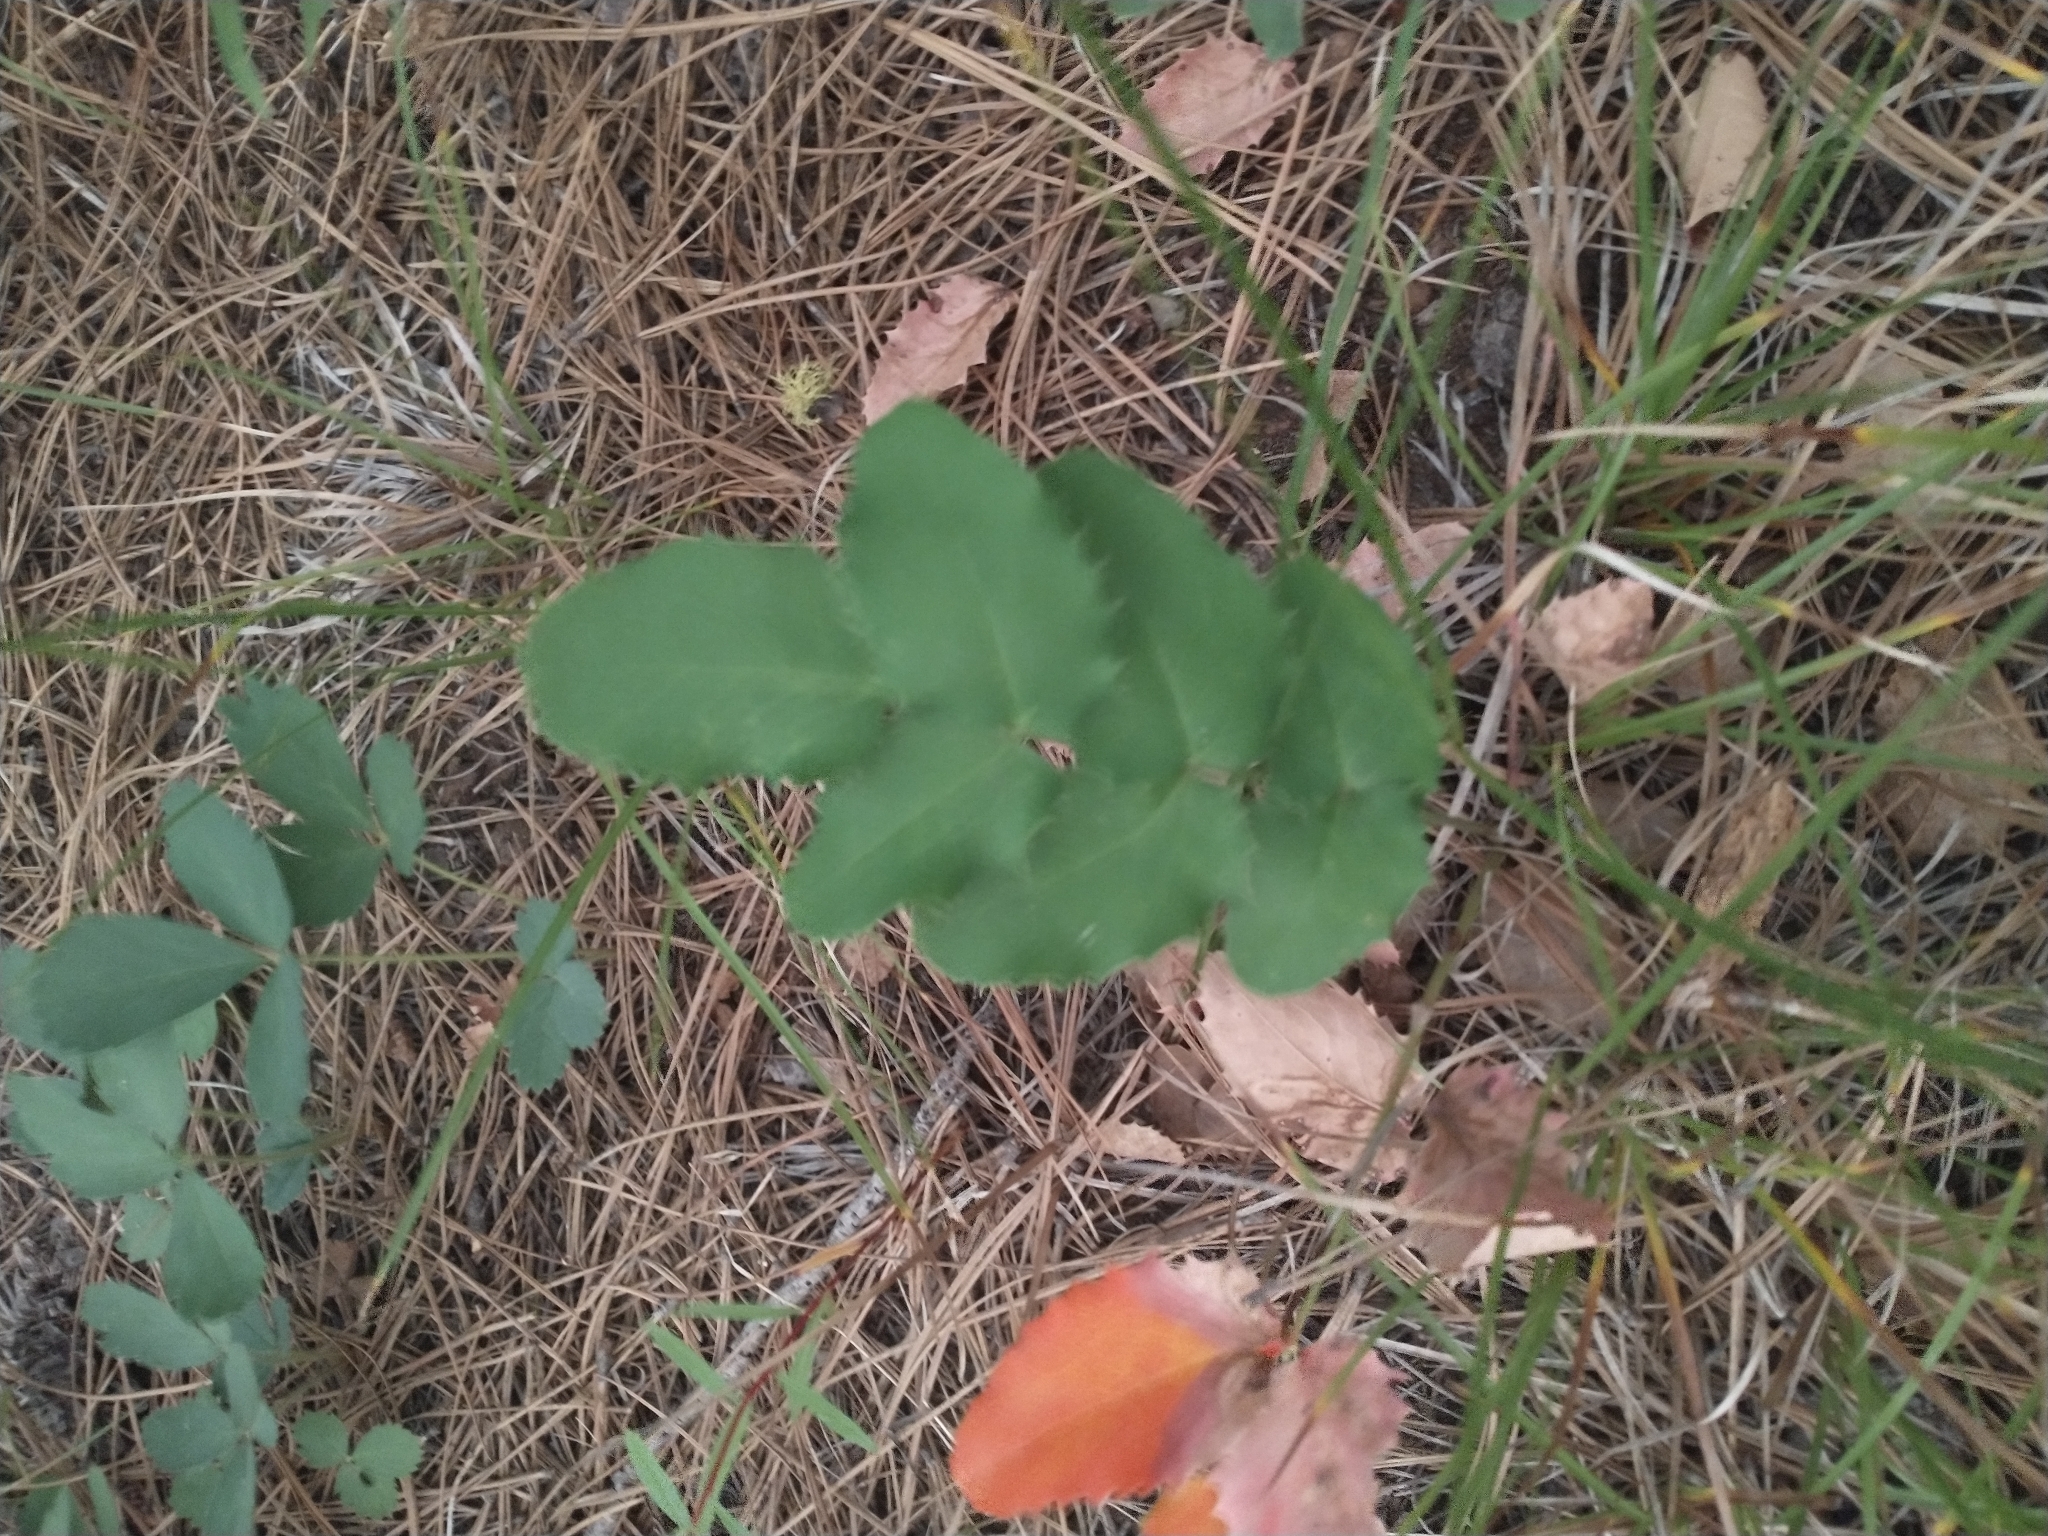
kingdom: Plantae
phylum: Tracheophyta
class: Magnoliopsida
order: Ranunculales
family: Berberidaceae
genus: Mahonia
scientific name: Mahonia repens
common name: Creeping oregon-grape
